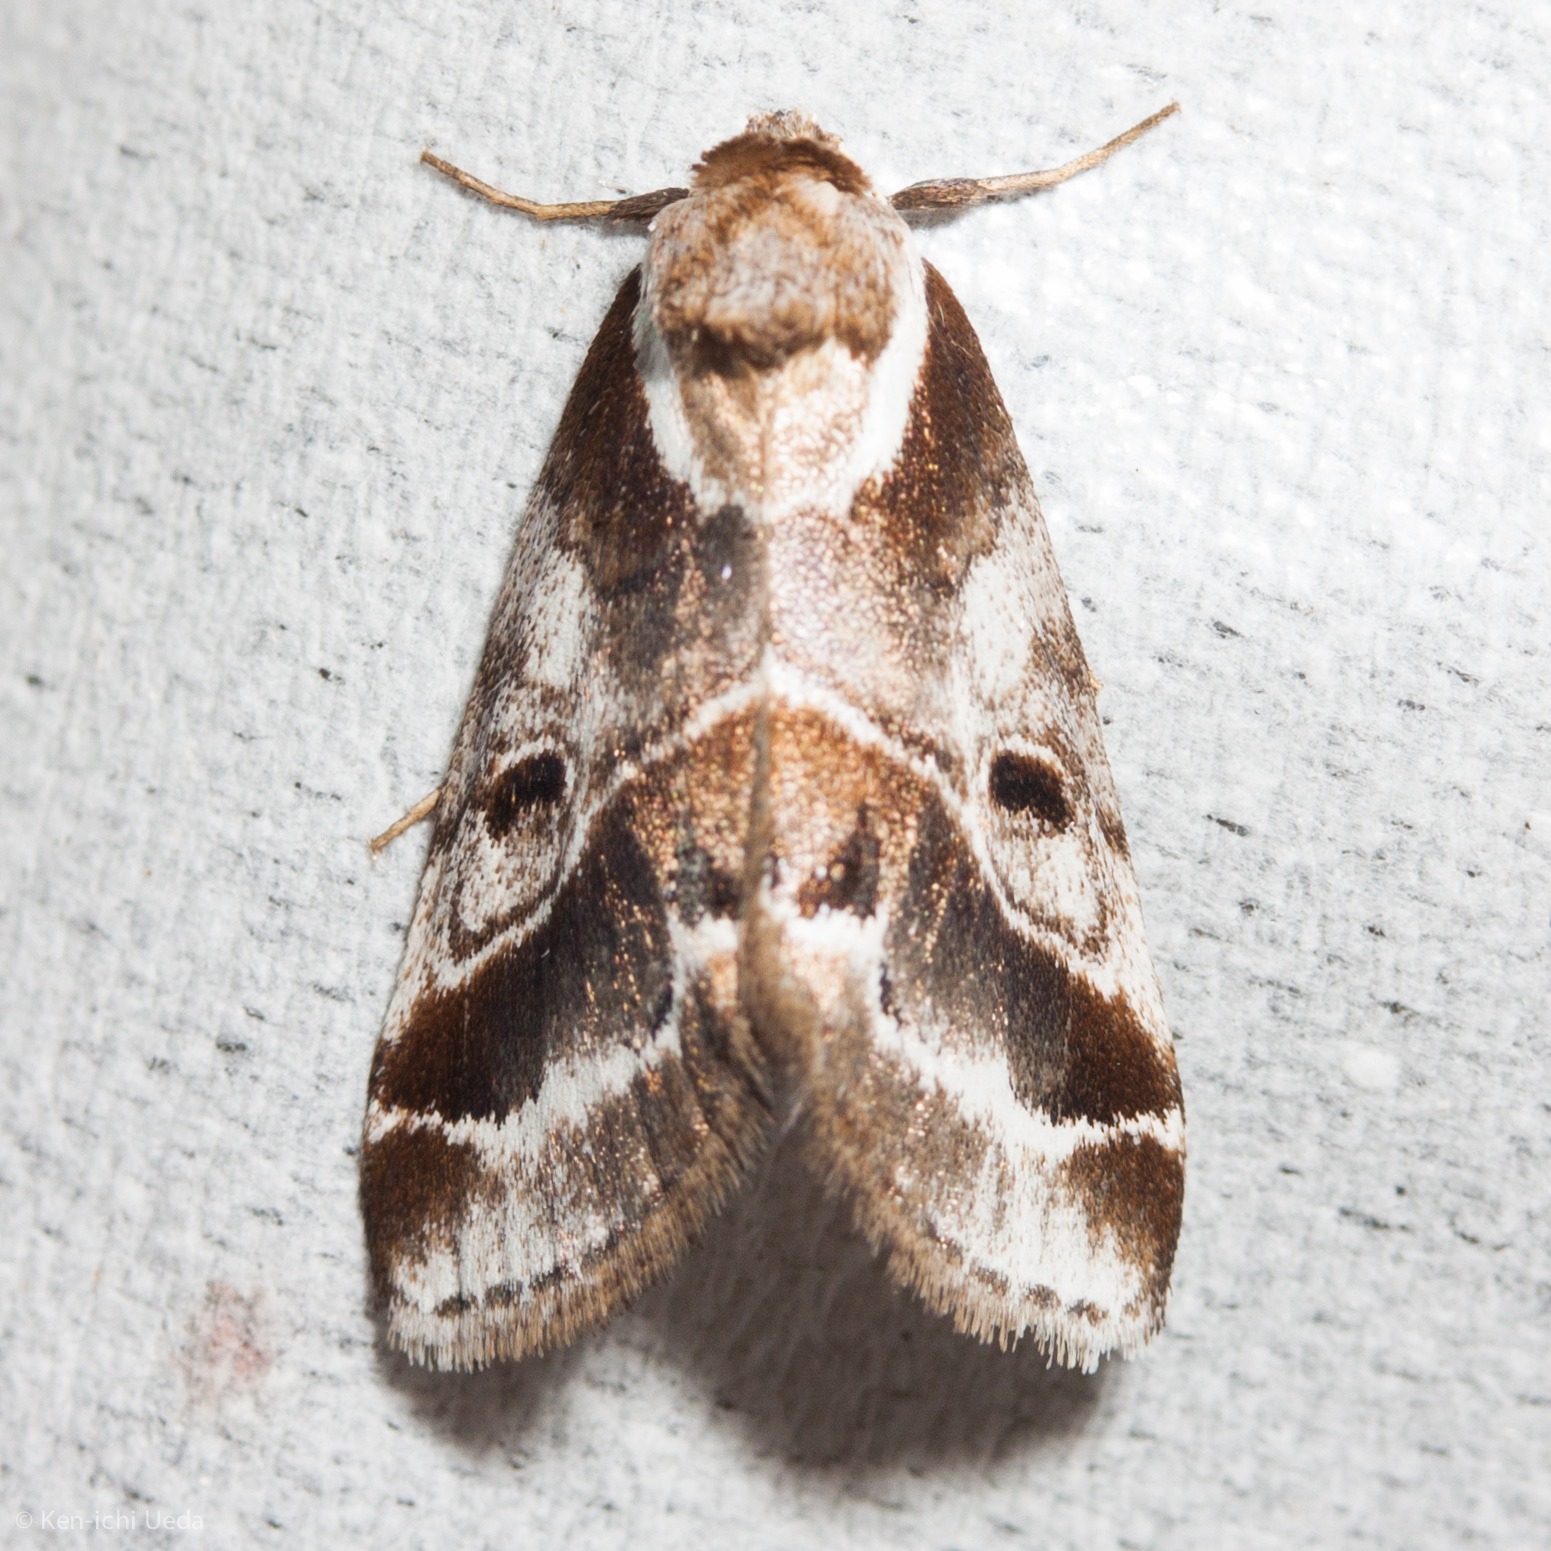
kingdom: Animalia
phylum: Arthropoda
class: Insecta
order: Lepidoptera
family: Nolidae
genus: Baileya
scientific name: Baileya doubledayi
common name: Doubleday's baileya moth
